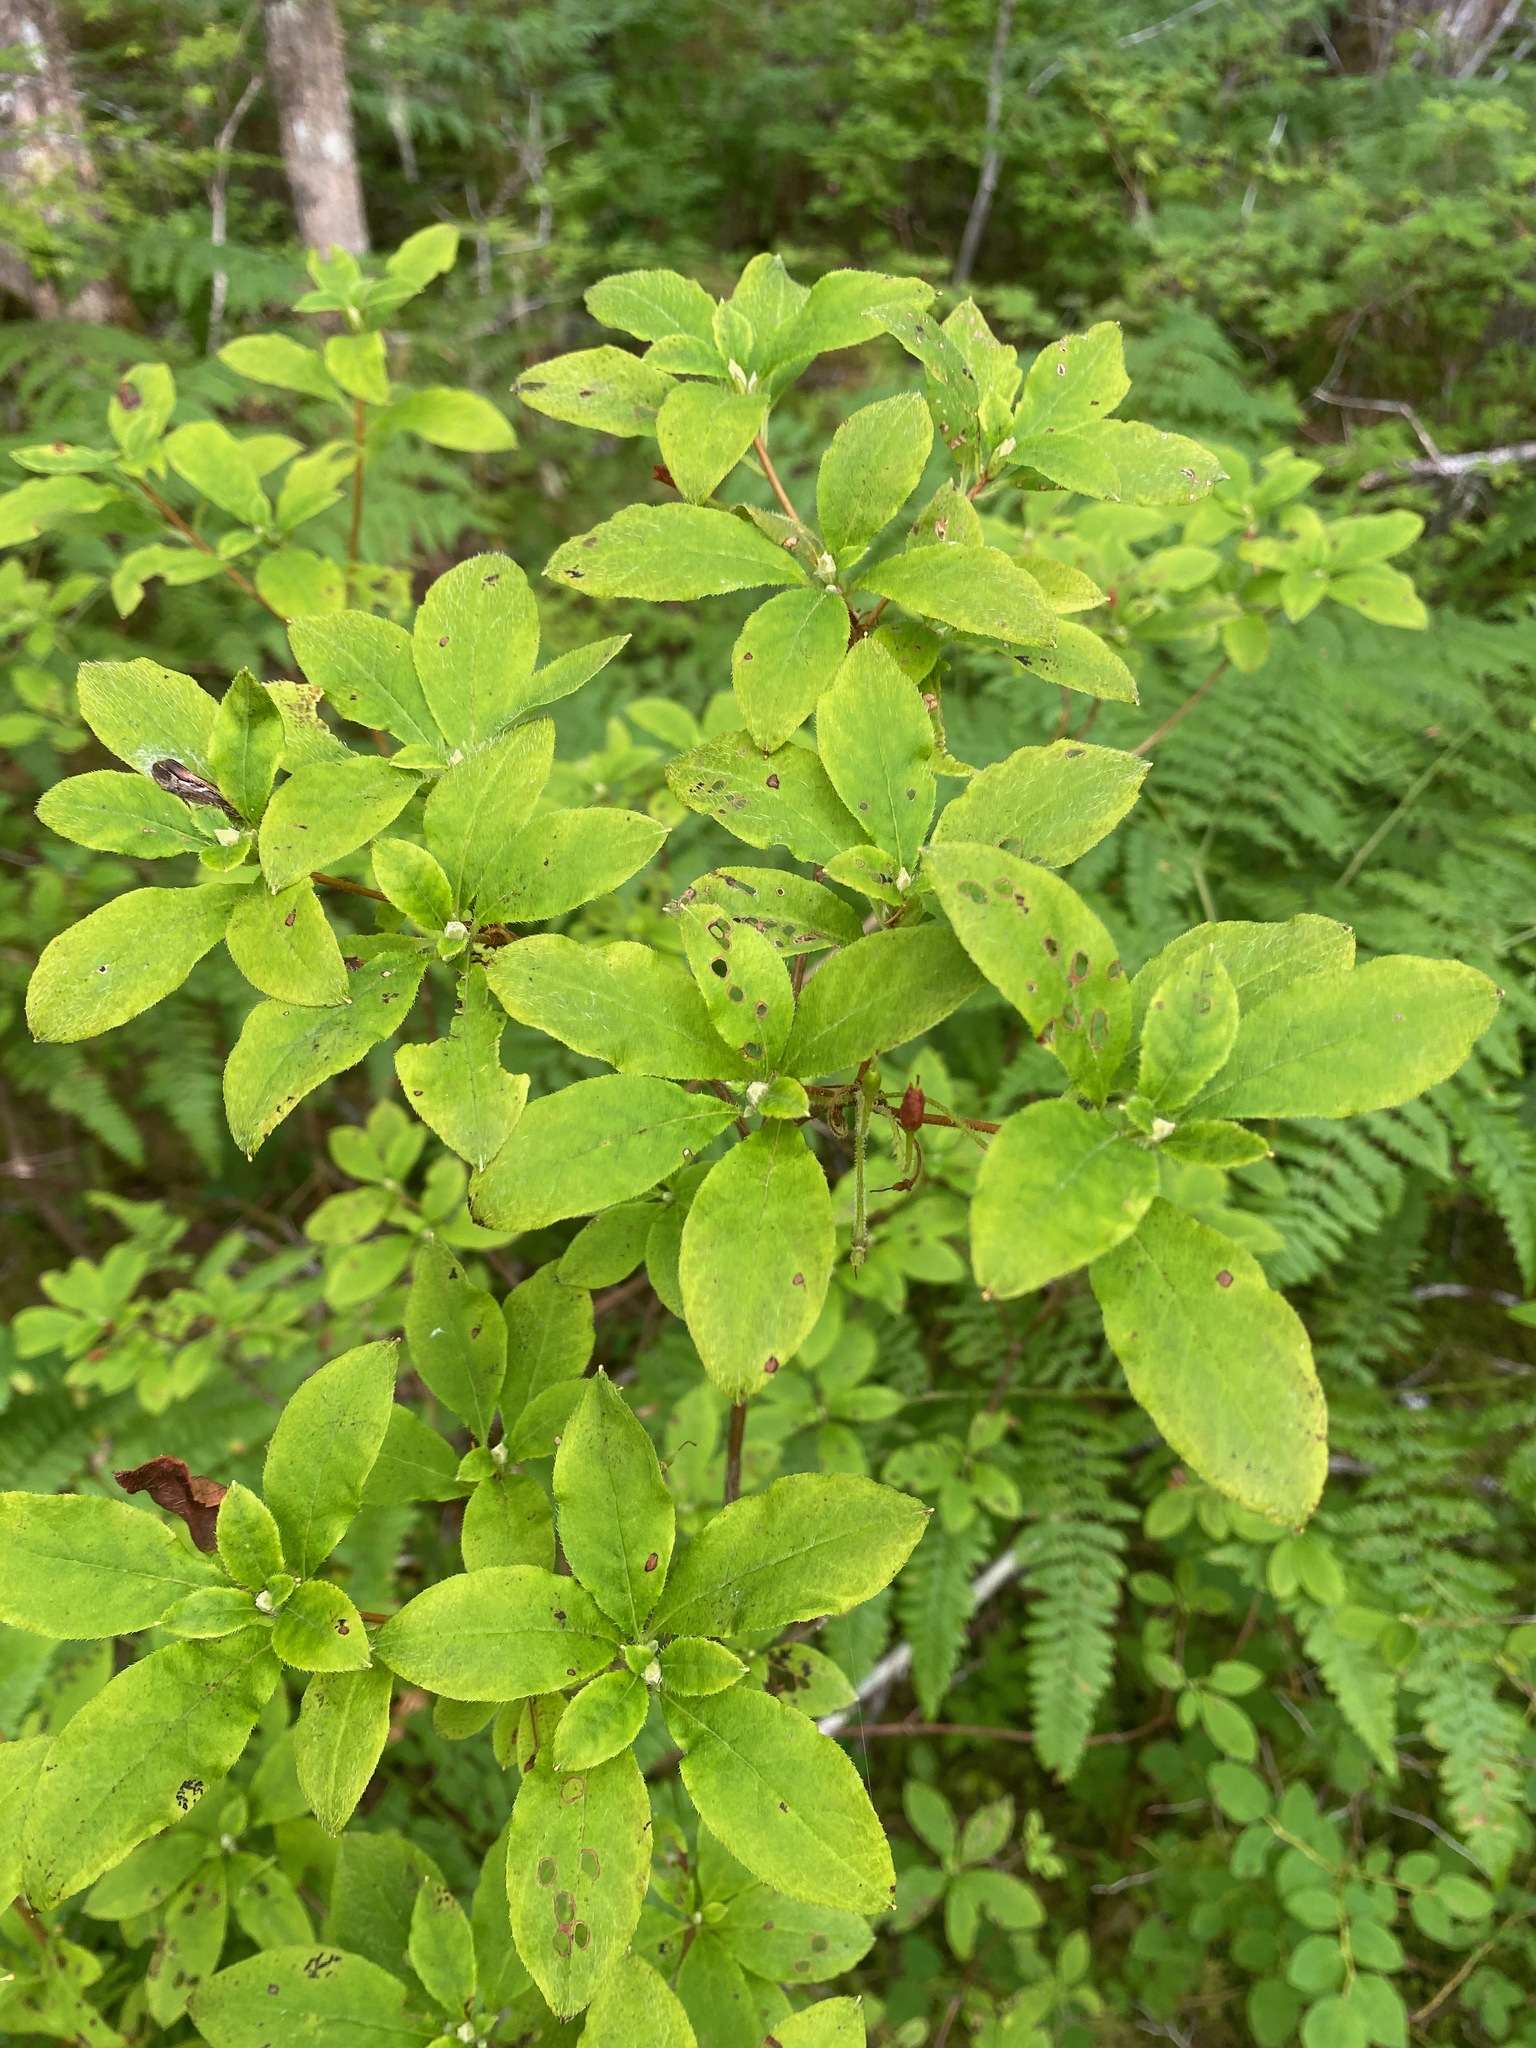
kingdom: Plantae
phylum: Tracheophyta
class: Magnoliopsida
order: Ericales
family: Ericaceae
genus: Rhododendron
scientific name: Rhododendron menziesii
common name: Pacific menziesia
